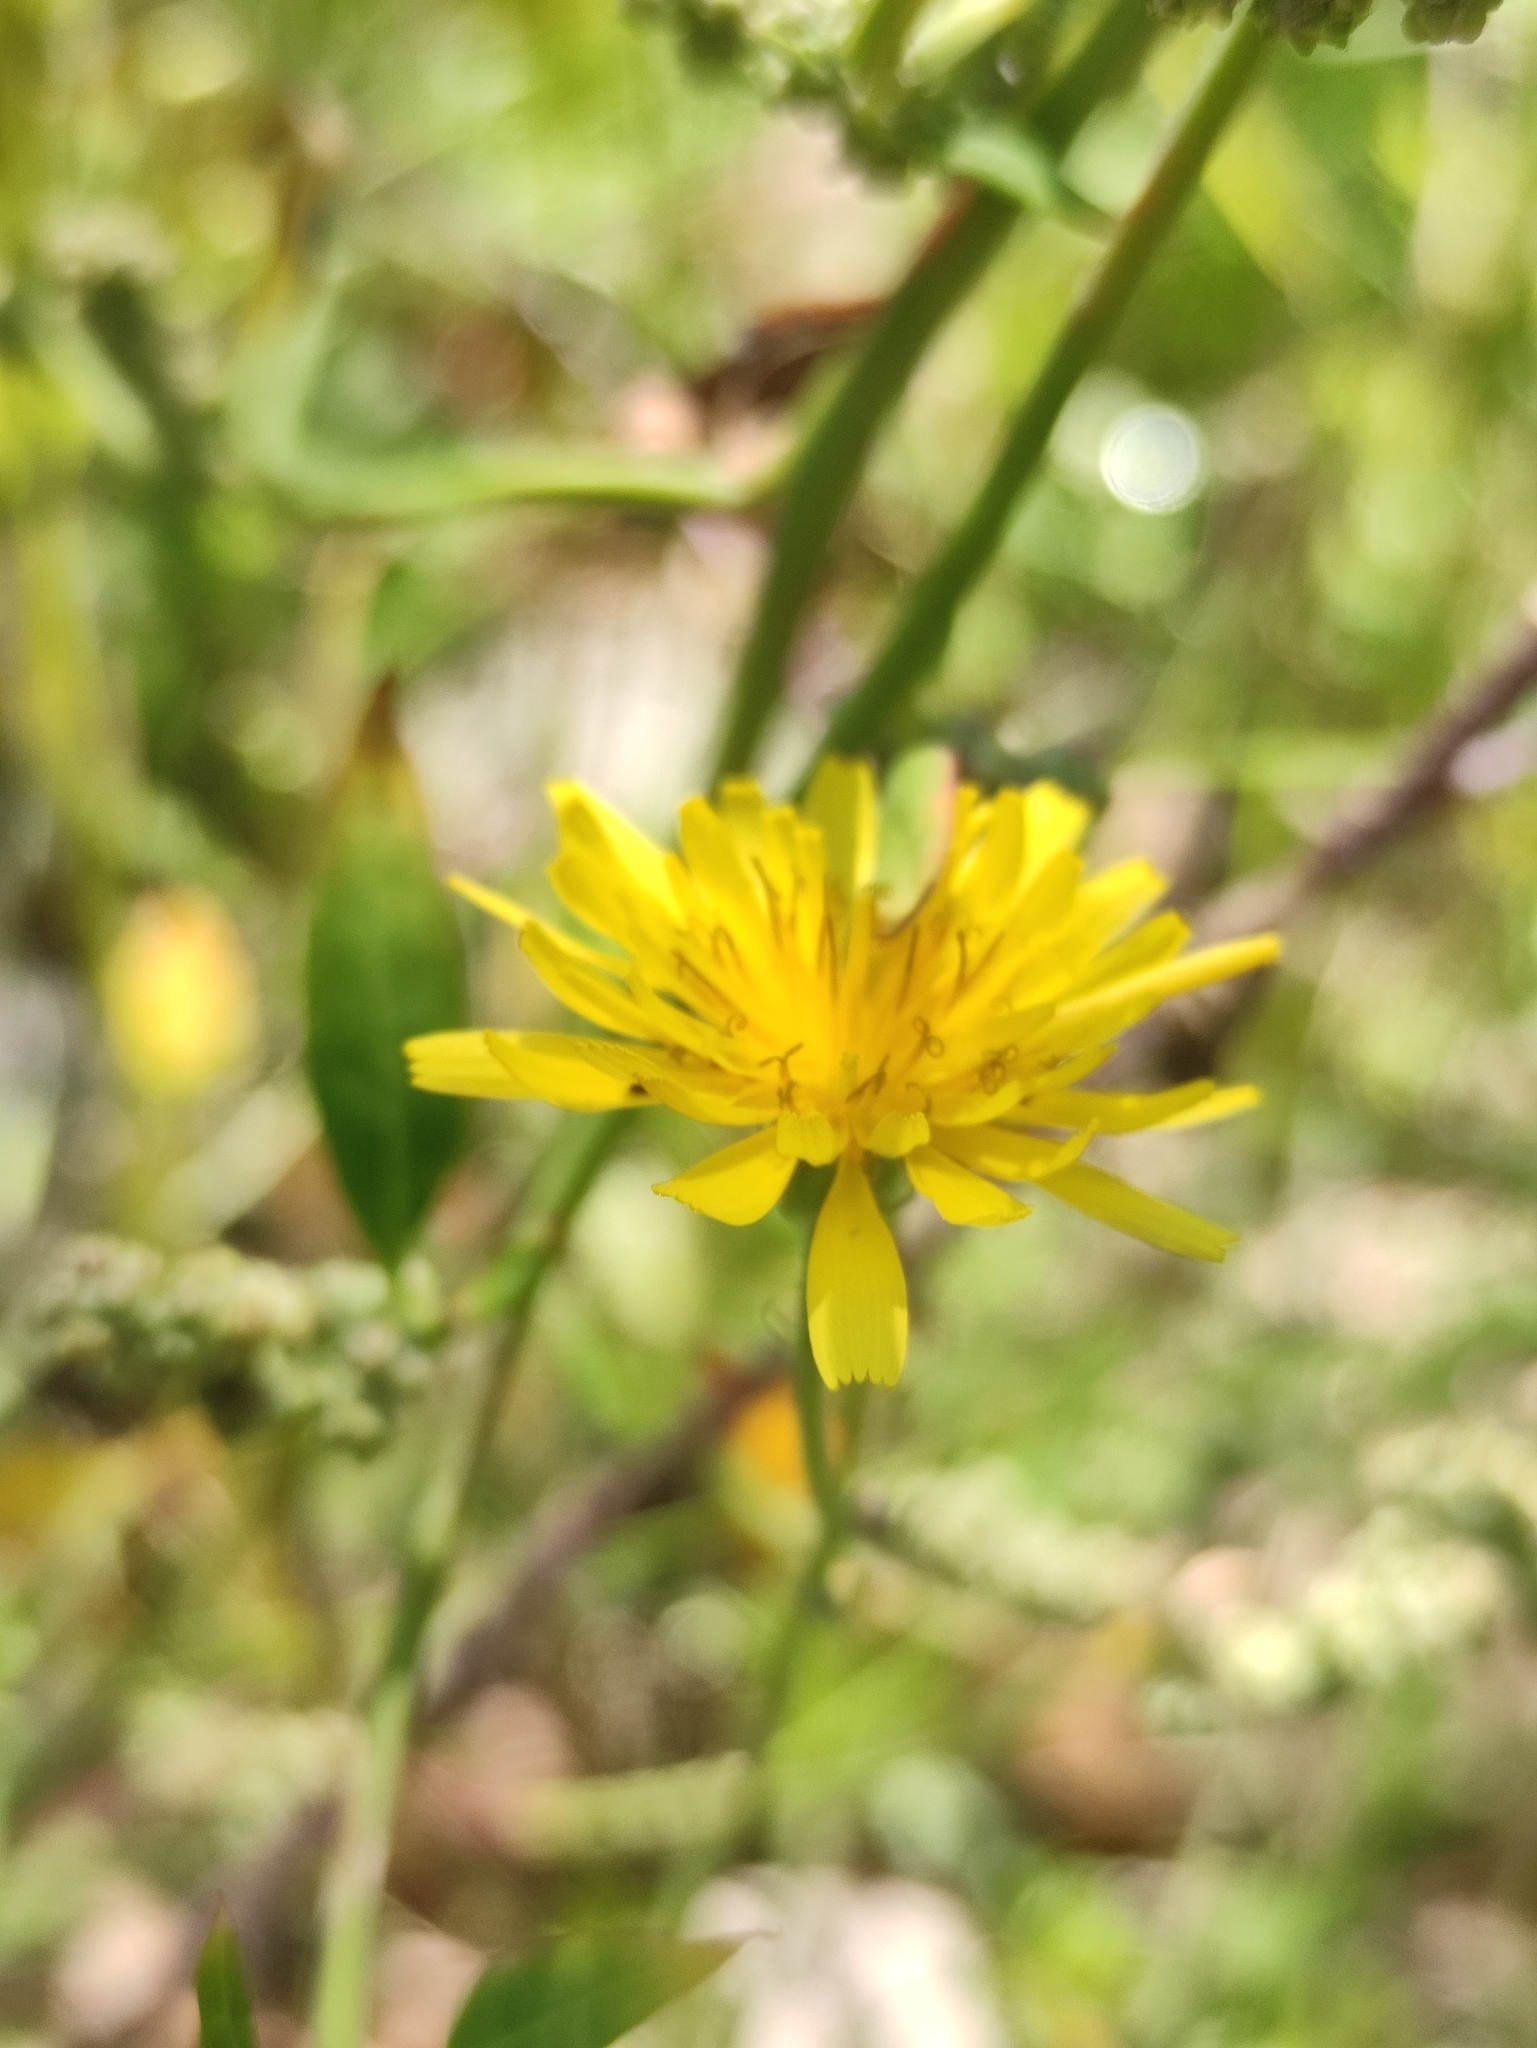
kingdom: Plantae
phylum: Tracheophyta
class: Magnoliopsida
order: Asterales
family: Asteraceae
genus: Crepis
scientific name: Crepis tectorum
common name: Narrow-leaved hawk's-beard
